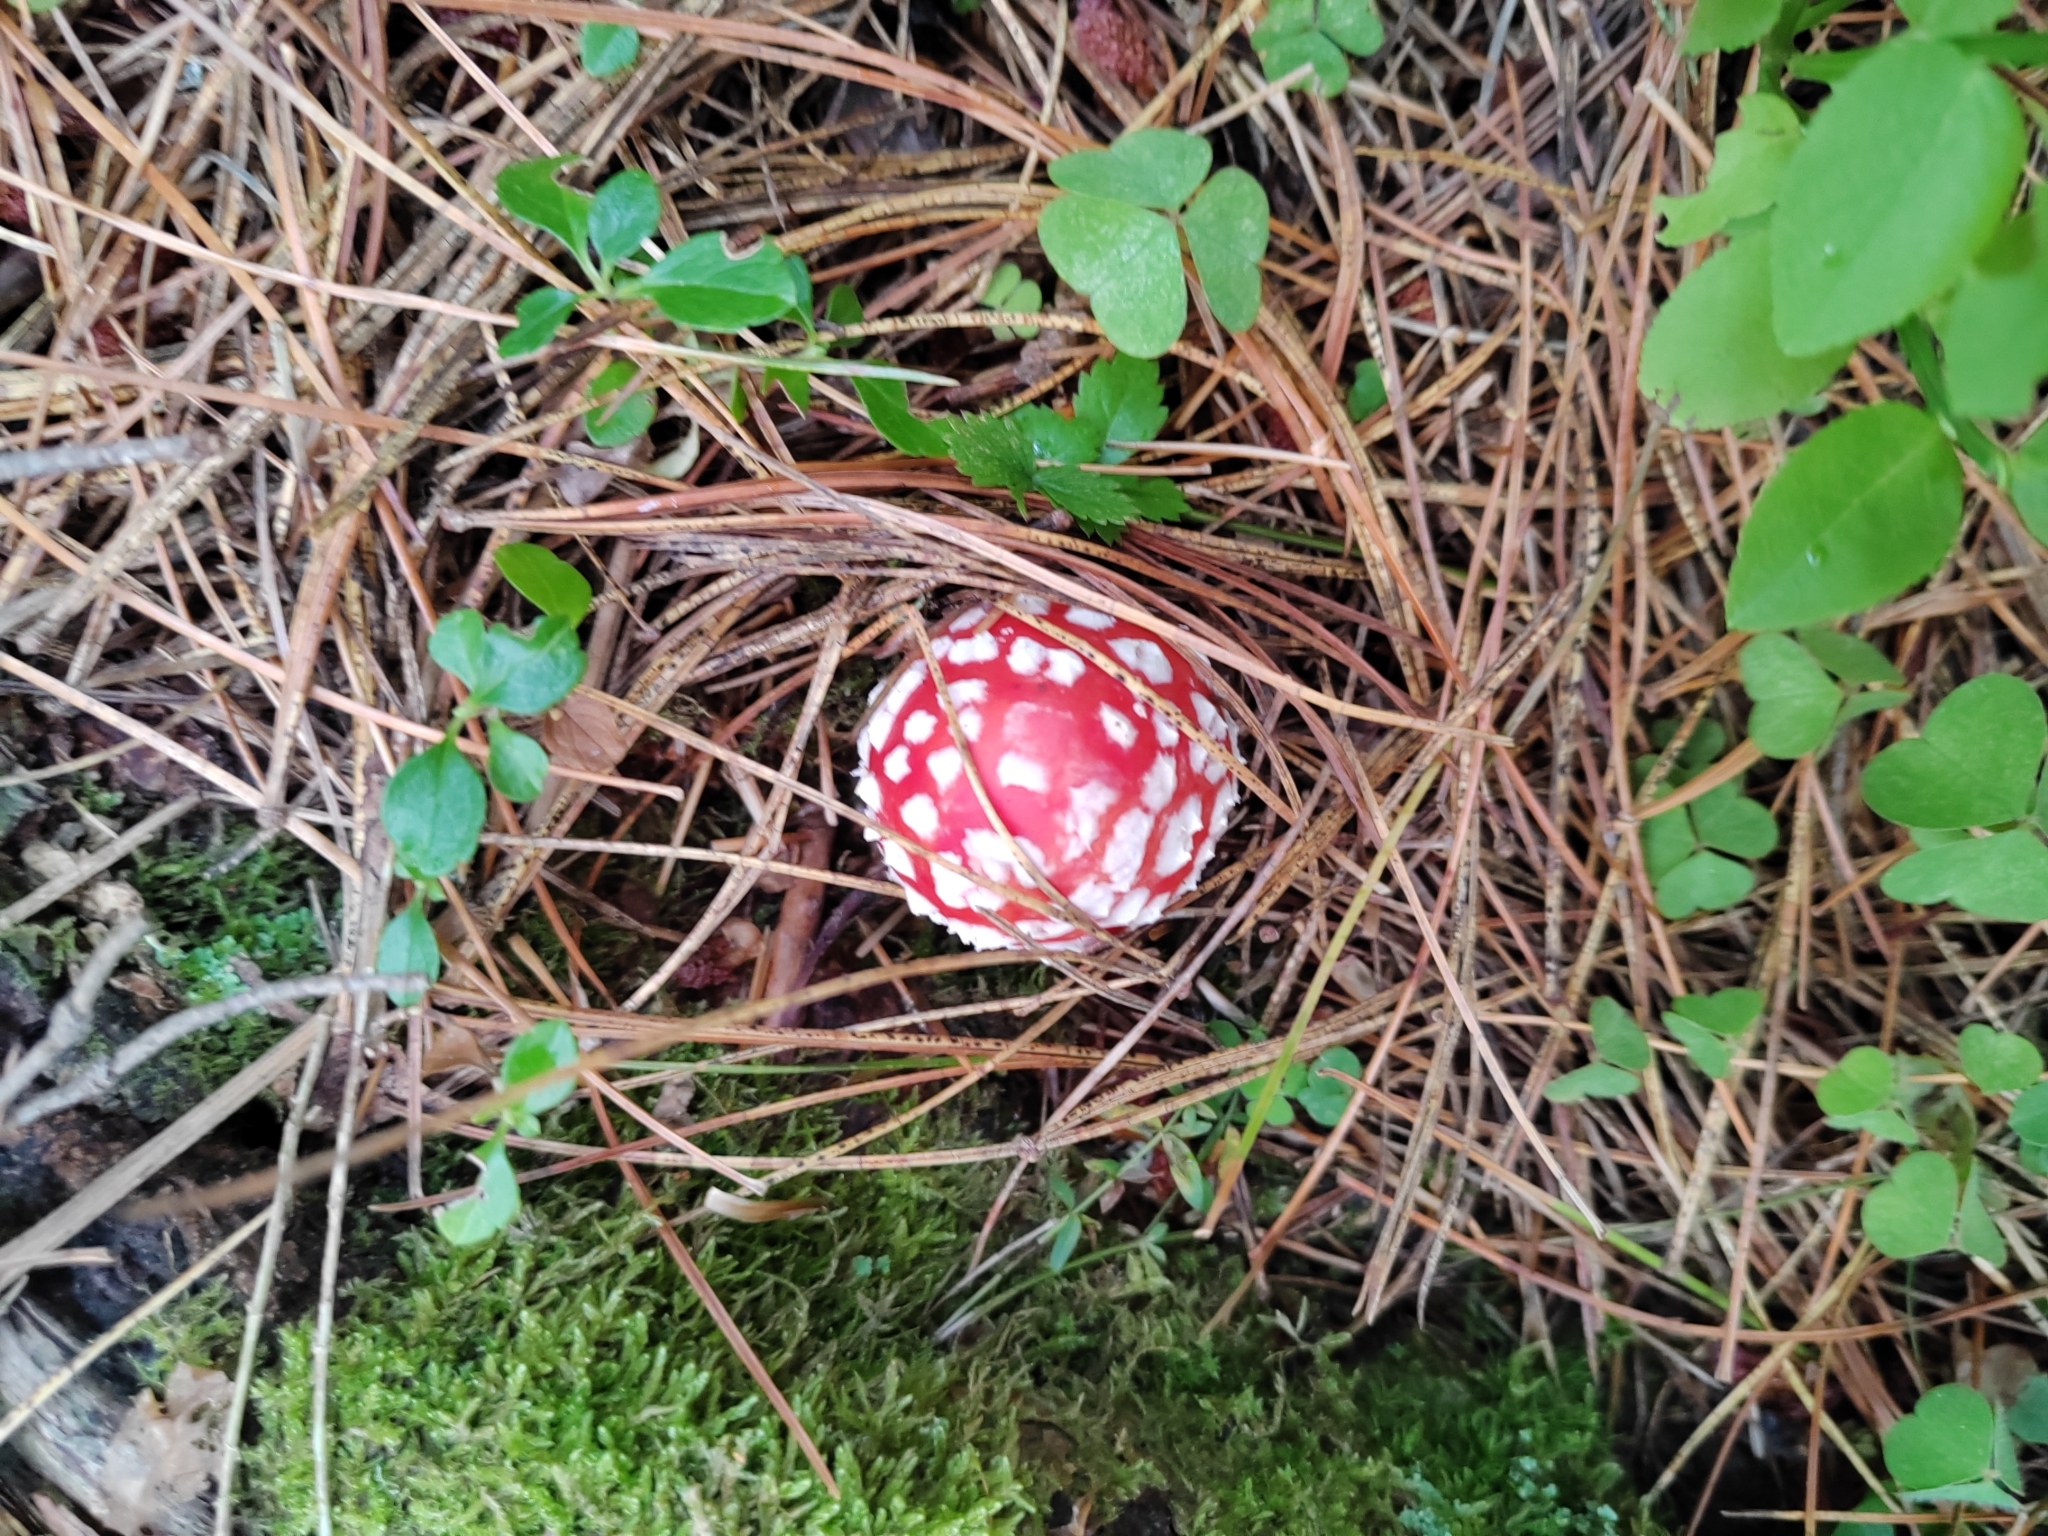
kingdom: Fungi
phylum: Basidiomycota
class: Agaricomycetes
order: Agaricales
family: Amanitaceae
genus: Amanita
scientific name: Amanita muscaria
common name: Fly agaric
